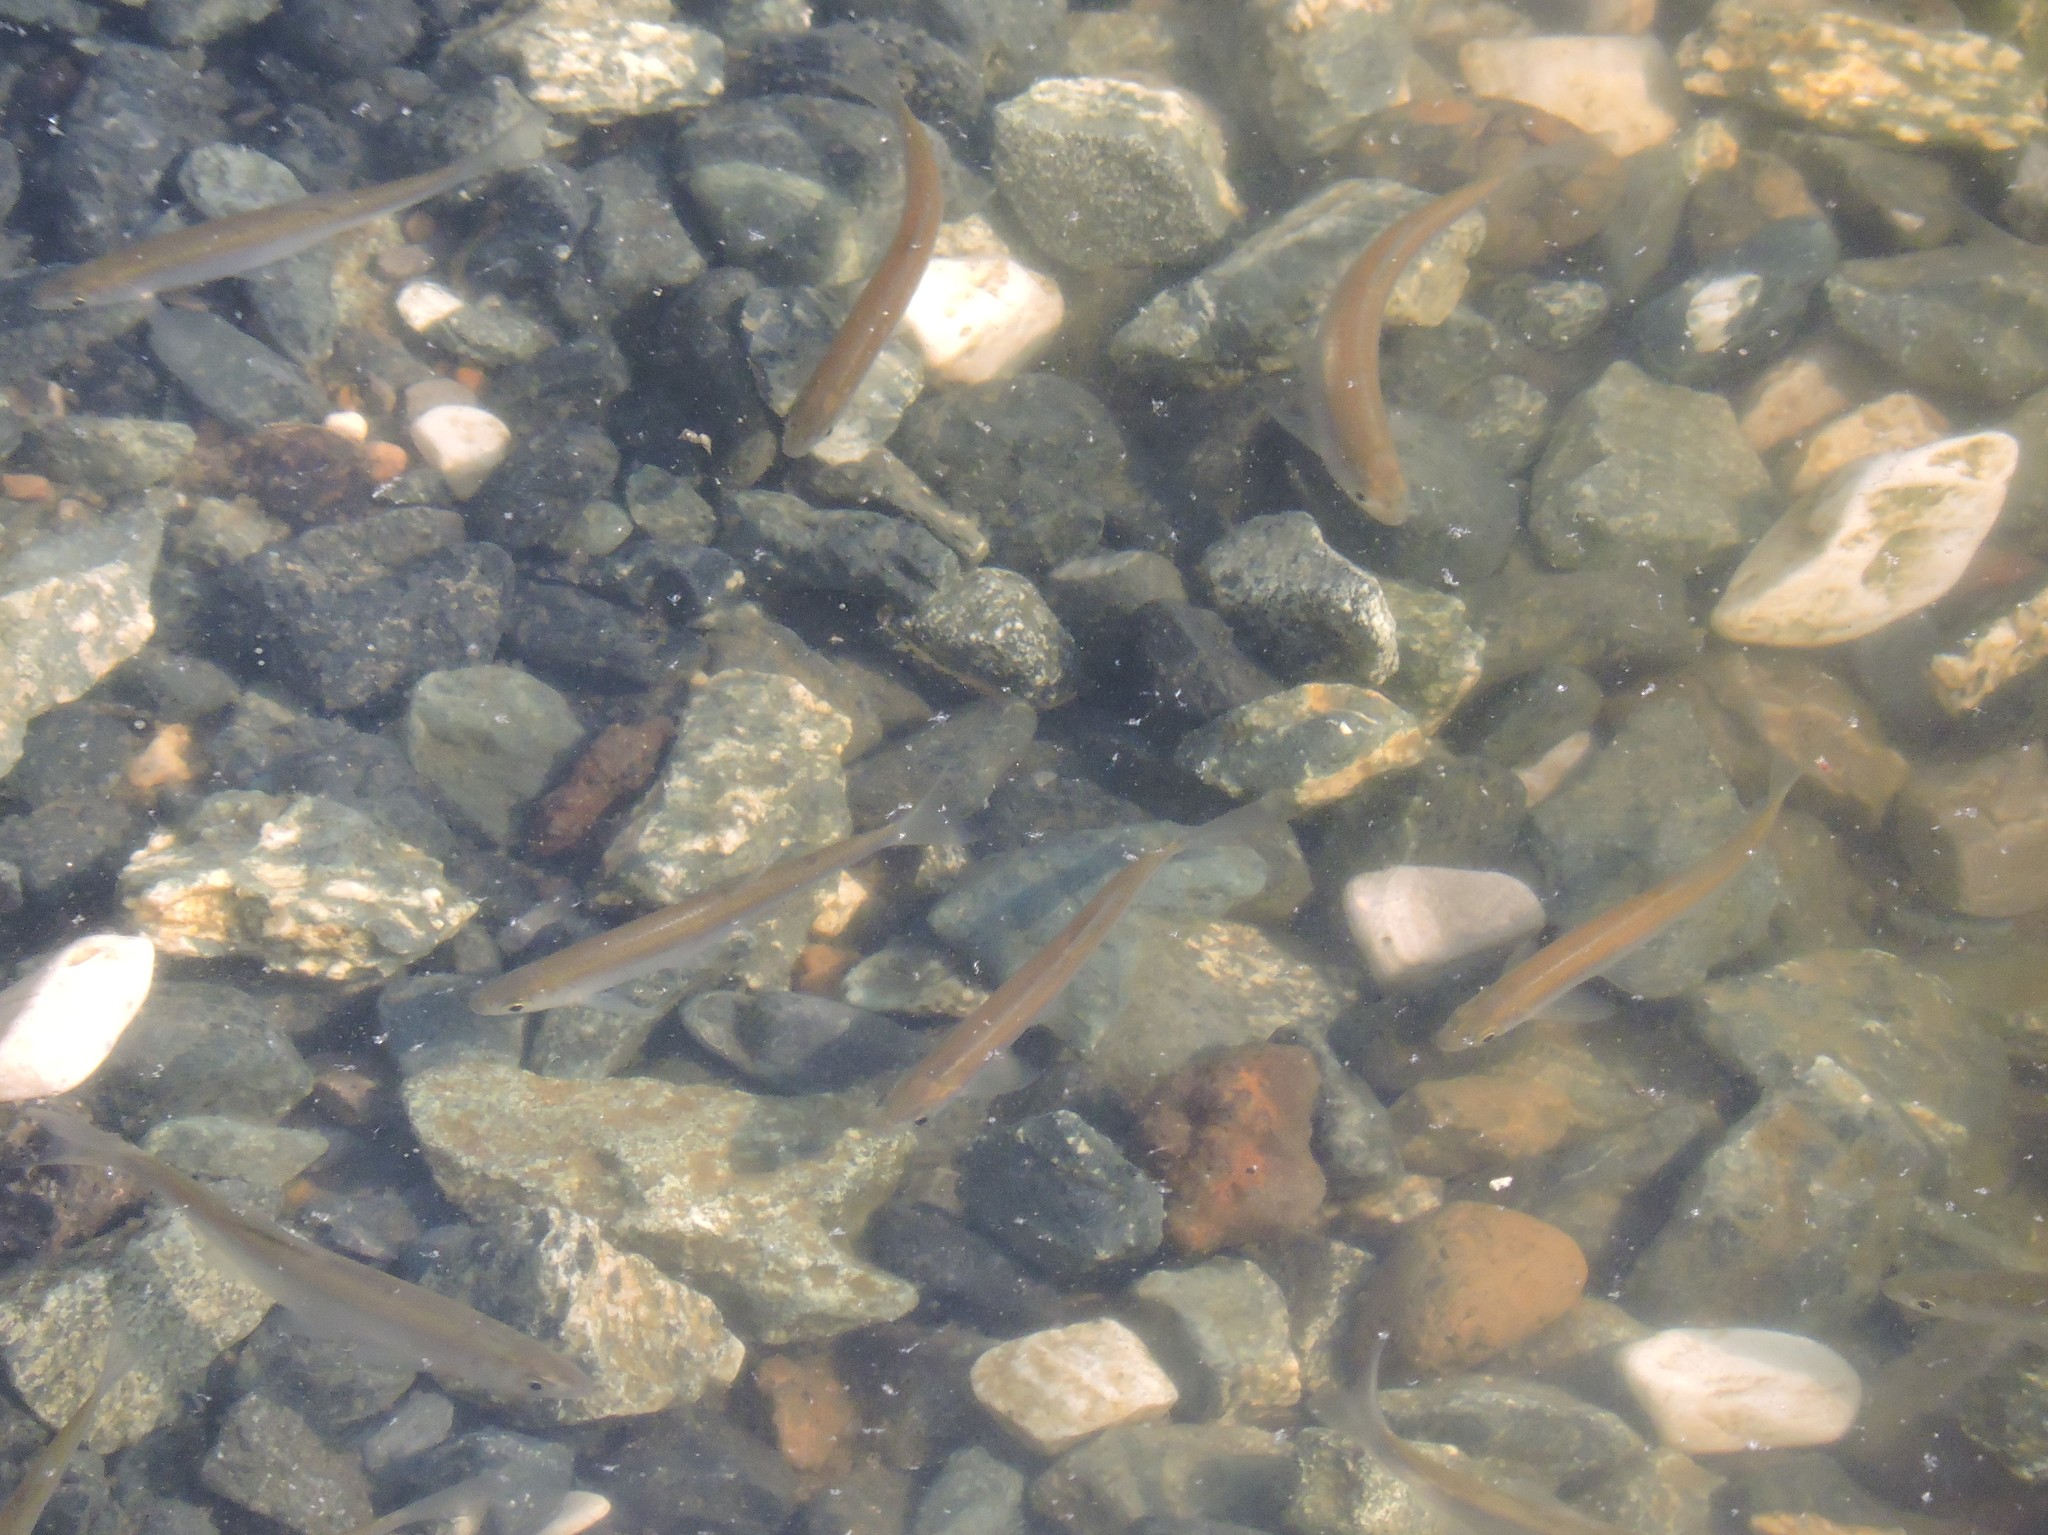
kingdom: Animalia
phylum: Chordata
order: Cypriniformes
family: Cyprinidae
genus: Alburnus
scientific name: Alburnus alburnus
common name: Bleak
